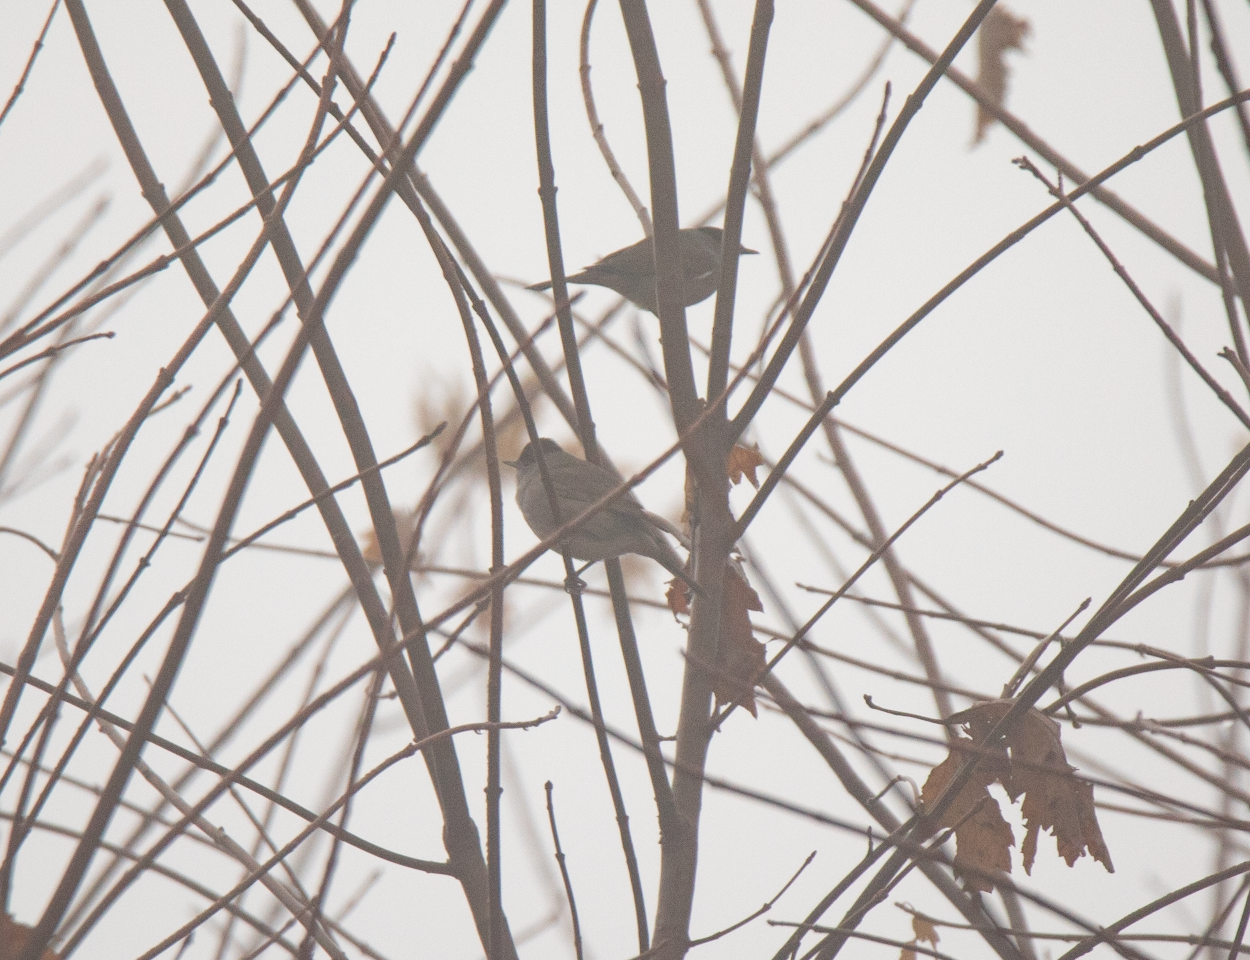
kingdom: Animalia
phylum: Chordata
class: Aves
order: Passeriformes
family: Sylviidae
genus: Sylvia
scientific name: Sylvia atricapilla
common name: Eurasian blackcap
